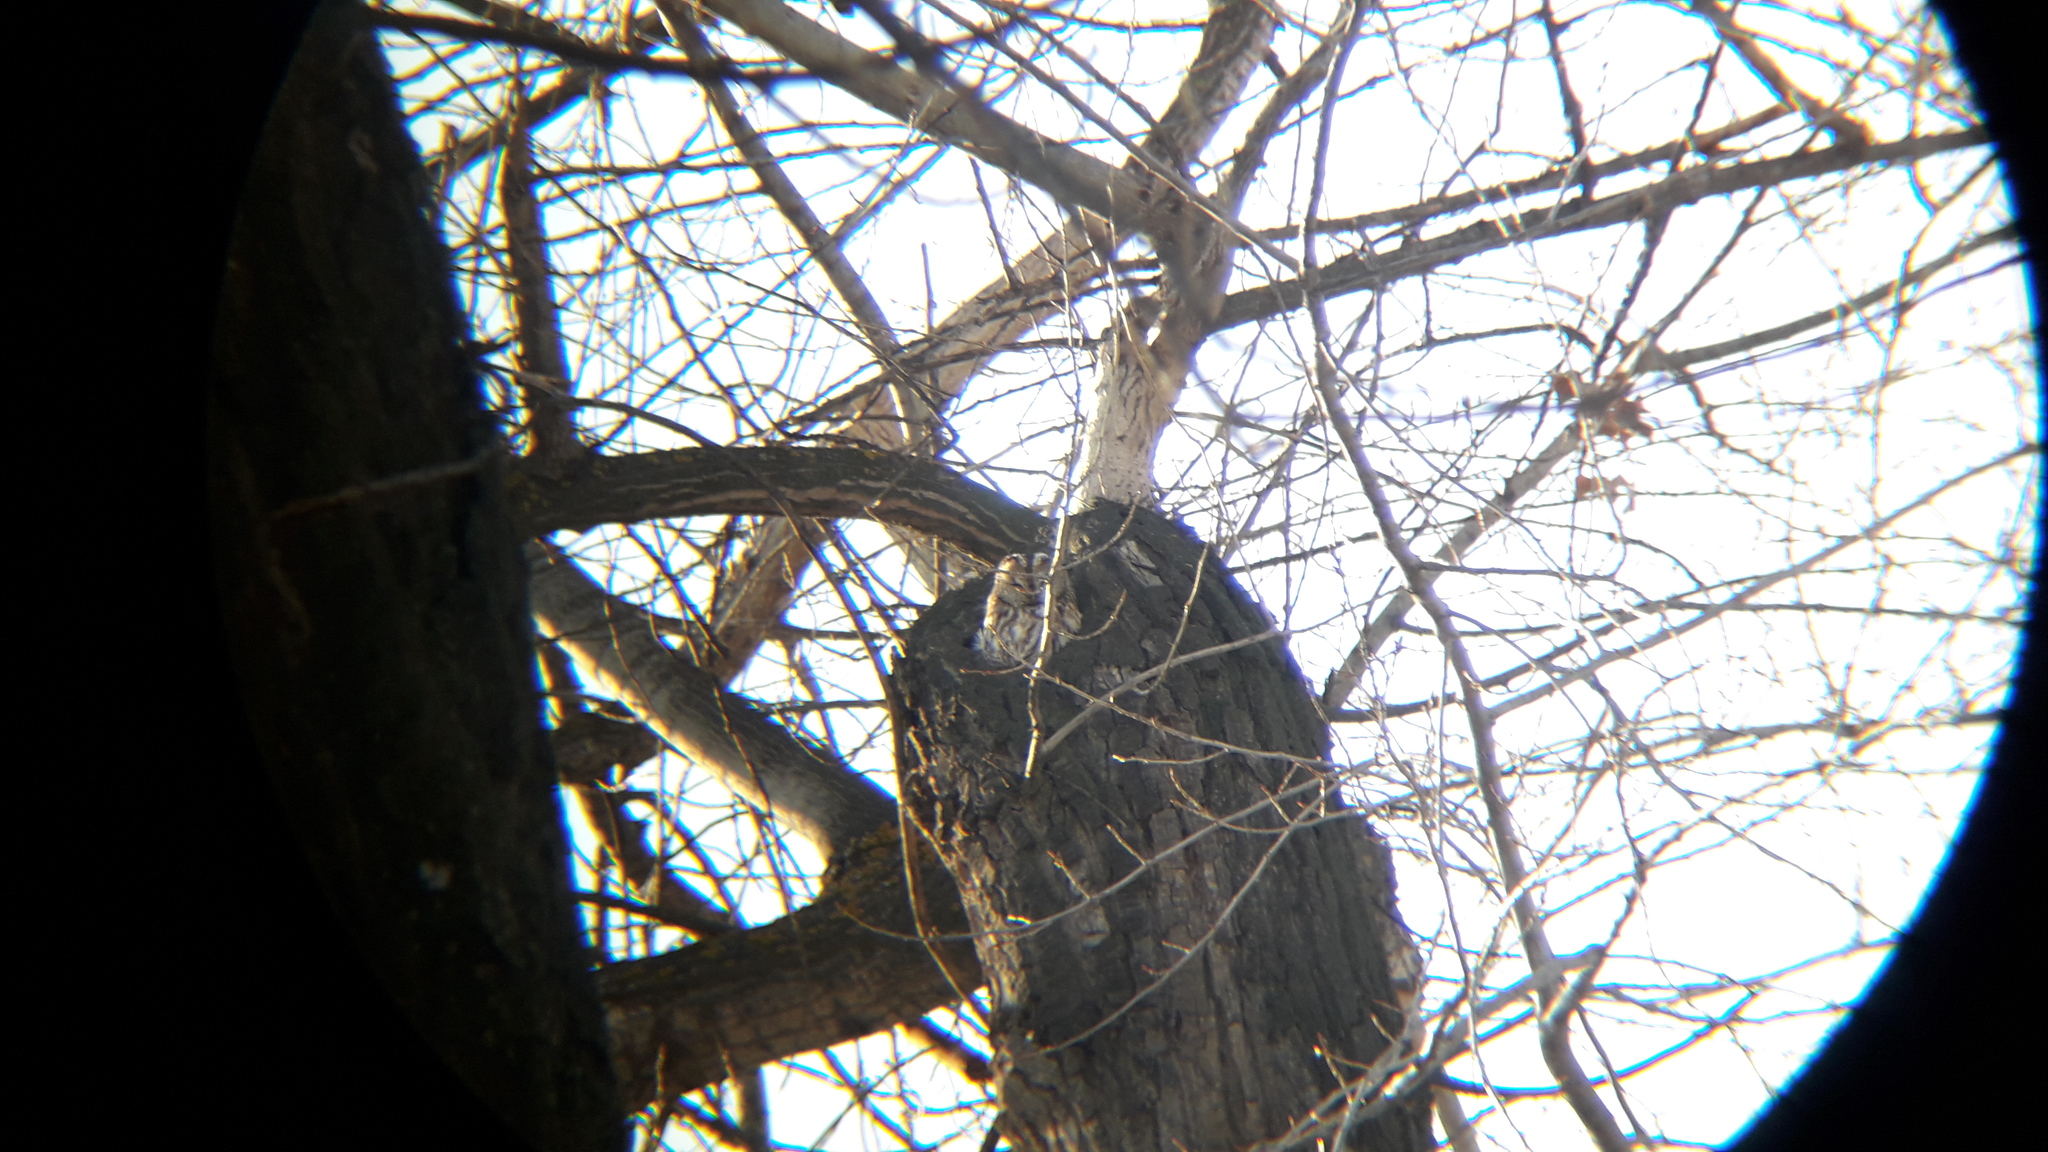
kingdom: Animalia
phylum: Chordata
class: Aves
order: Strigiformes
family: Strigidae
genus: Strix
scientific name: Strix aluco
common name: Tawny owl
